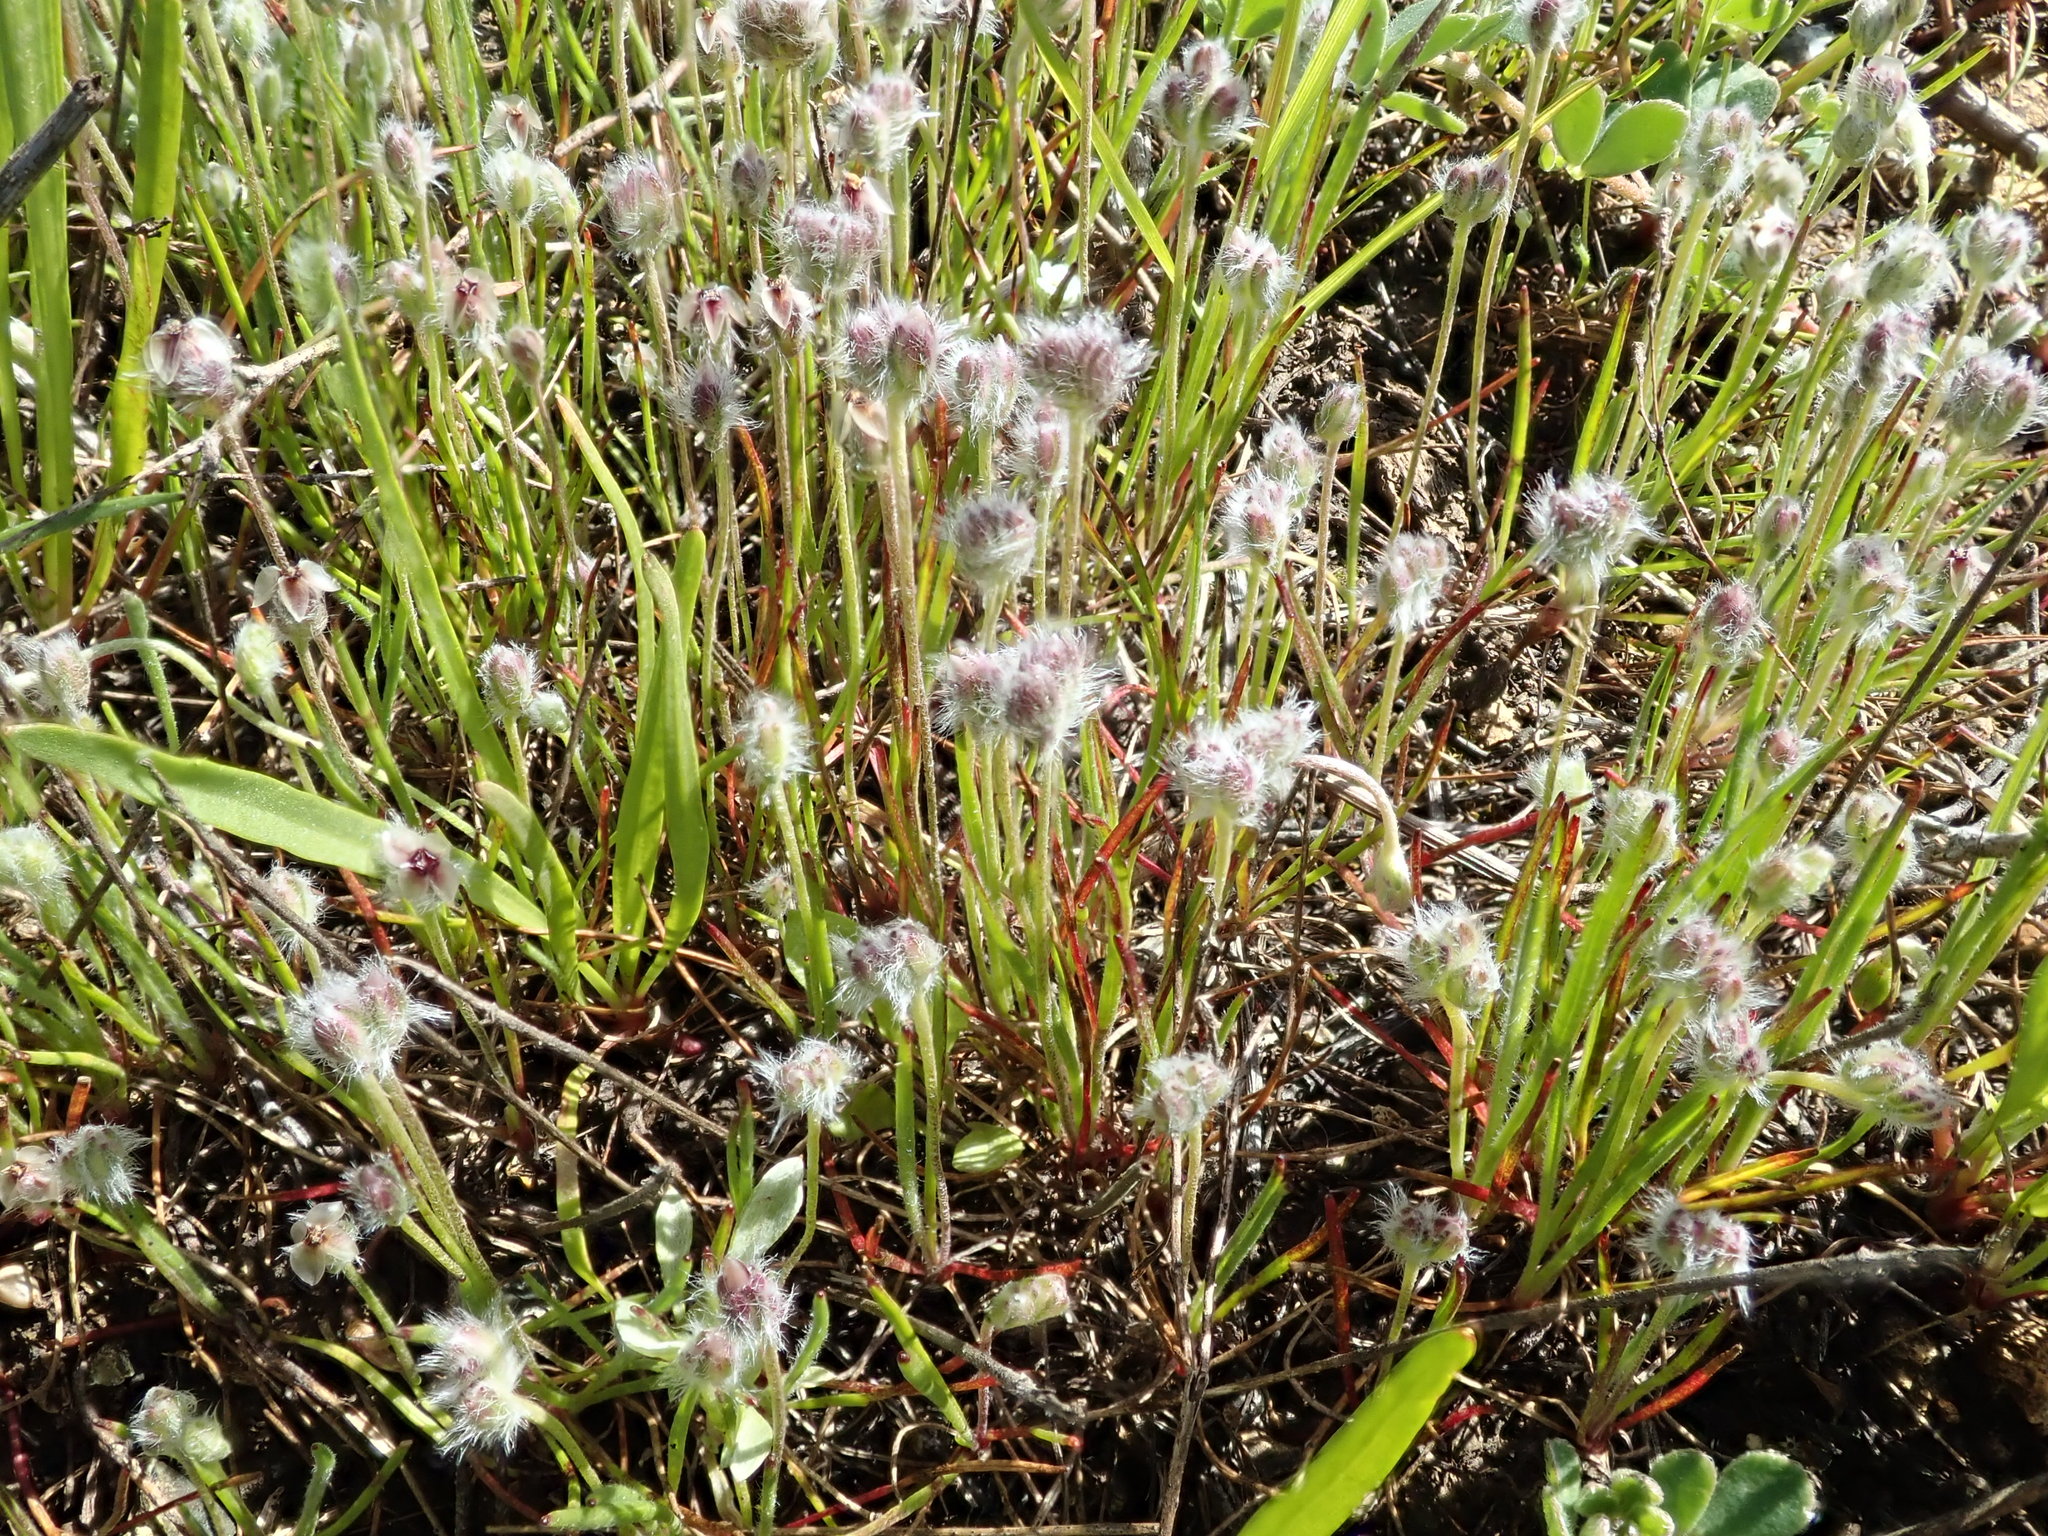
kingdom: Plantae
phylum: Tracheophyta
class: Magnoliopsida
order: Lamiales
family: Plantaginaceae
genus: Plantago
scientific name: Plantago erecta
